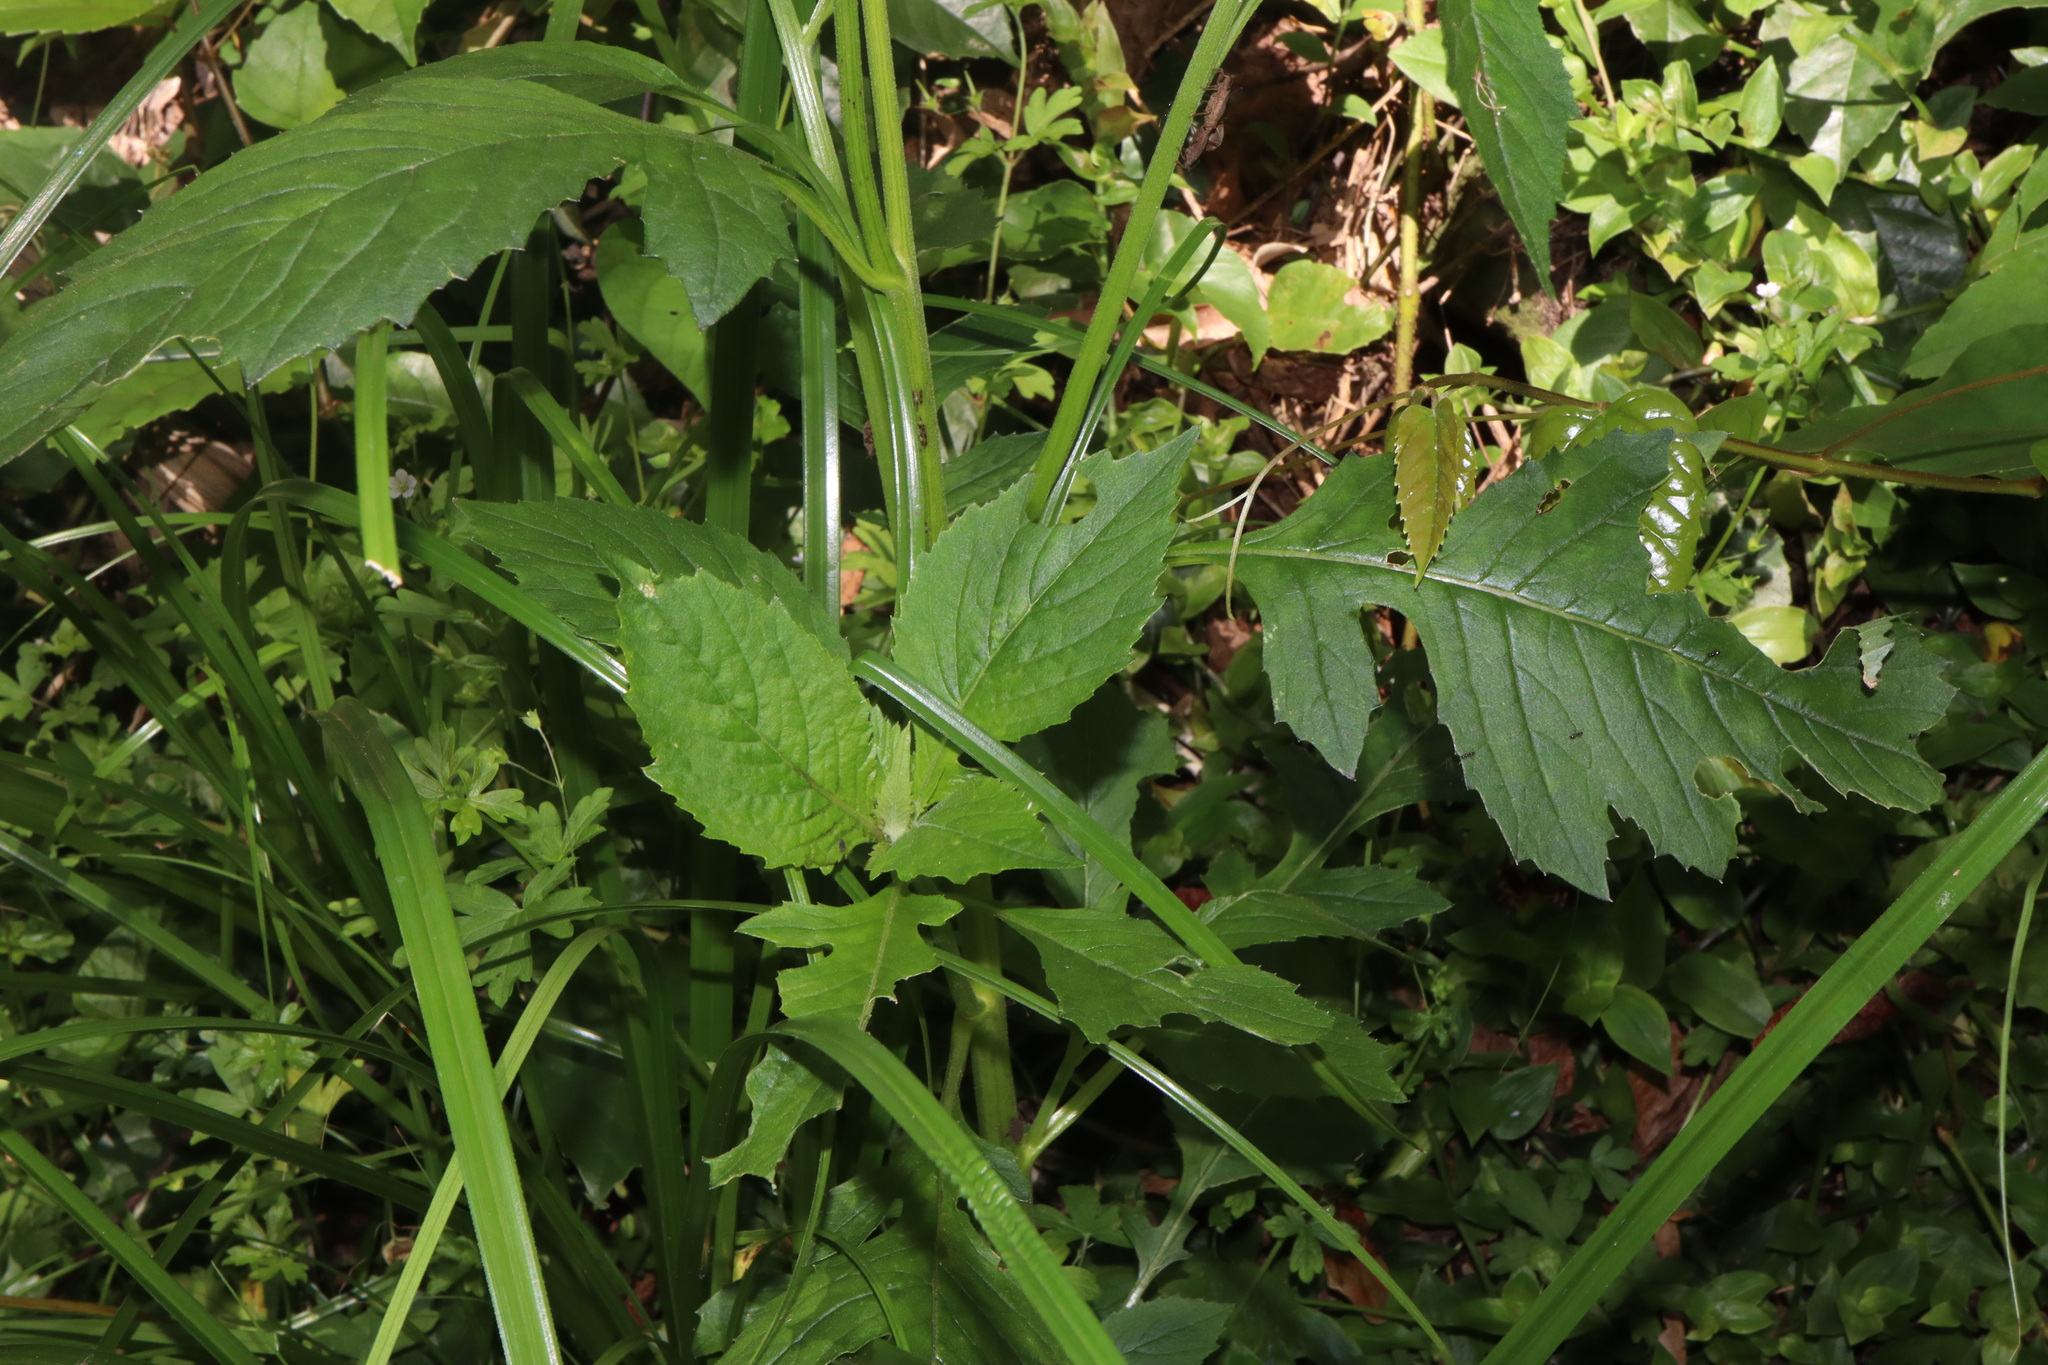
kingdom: Plantae
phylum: Tracheophyta
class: Magnoliopsida
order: Asterales
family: Asteraceae
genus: Crassocephalum
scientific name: Crassocephalum crepidioides
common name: Redflower ragleaf
